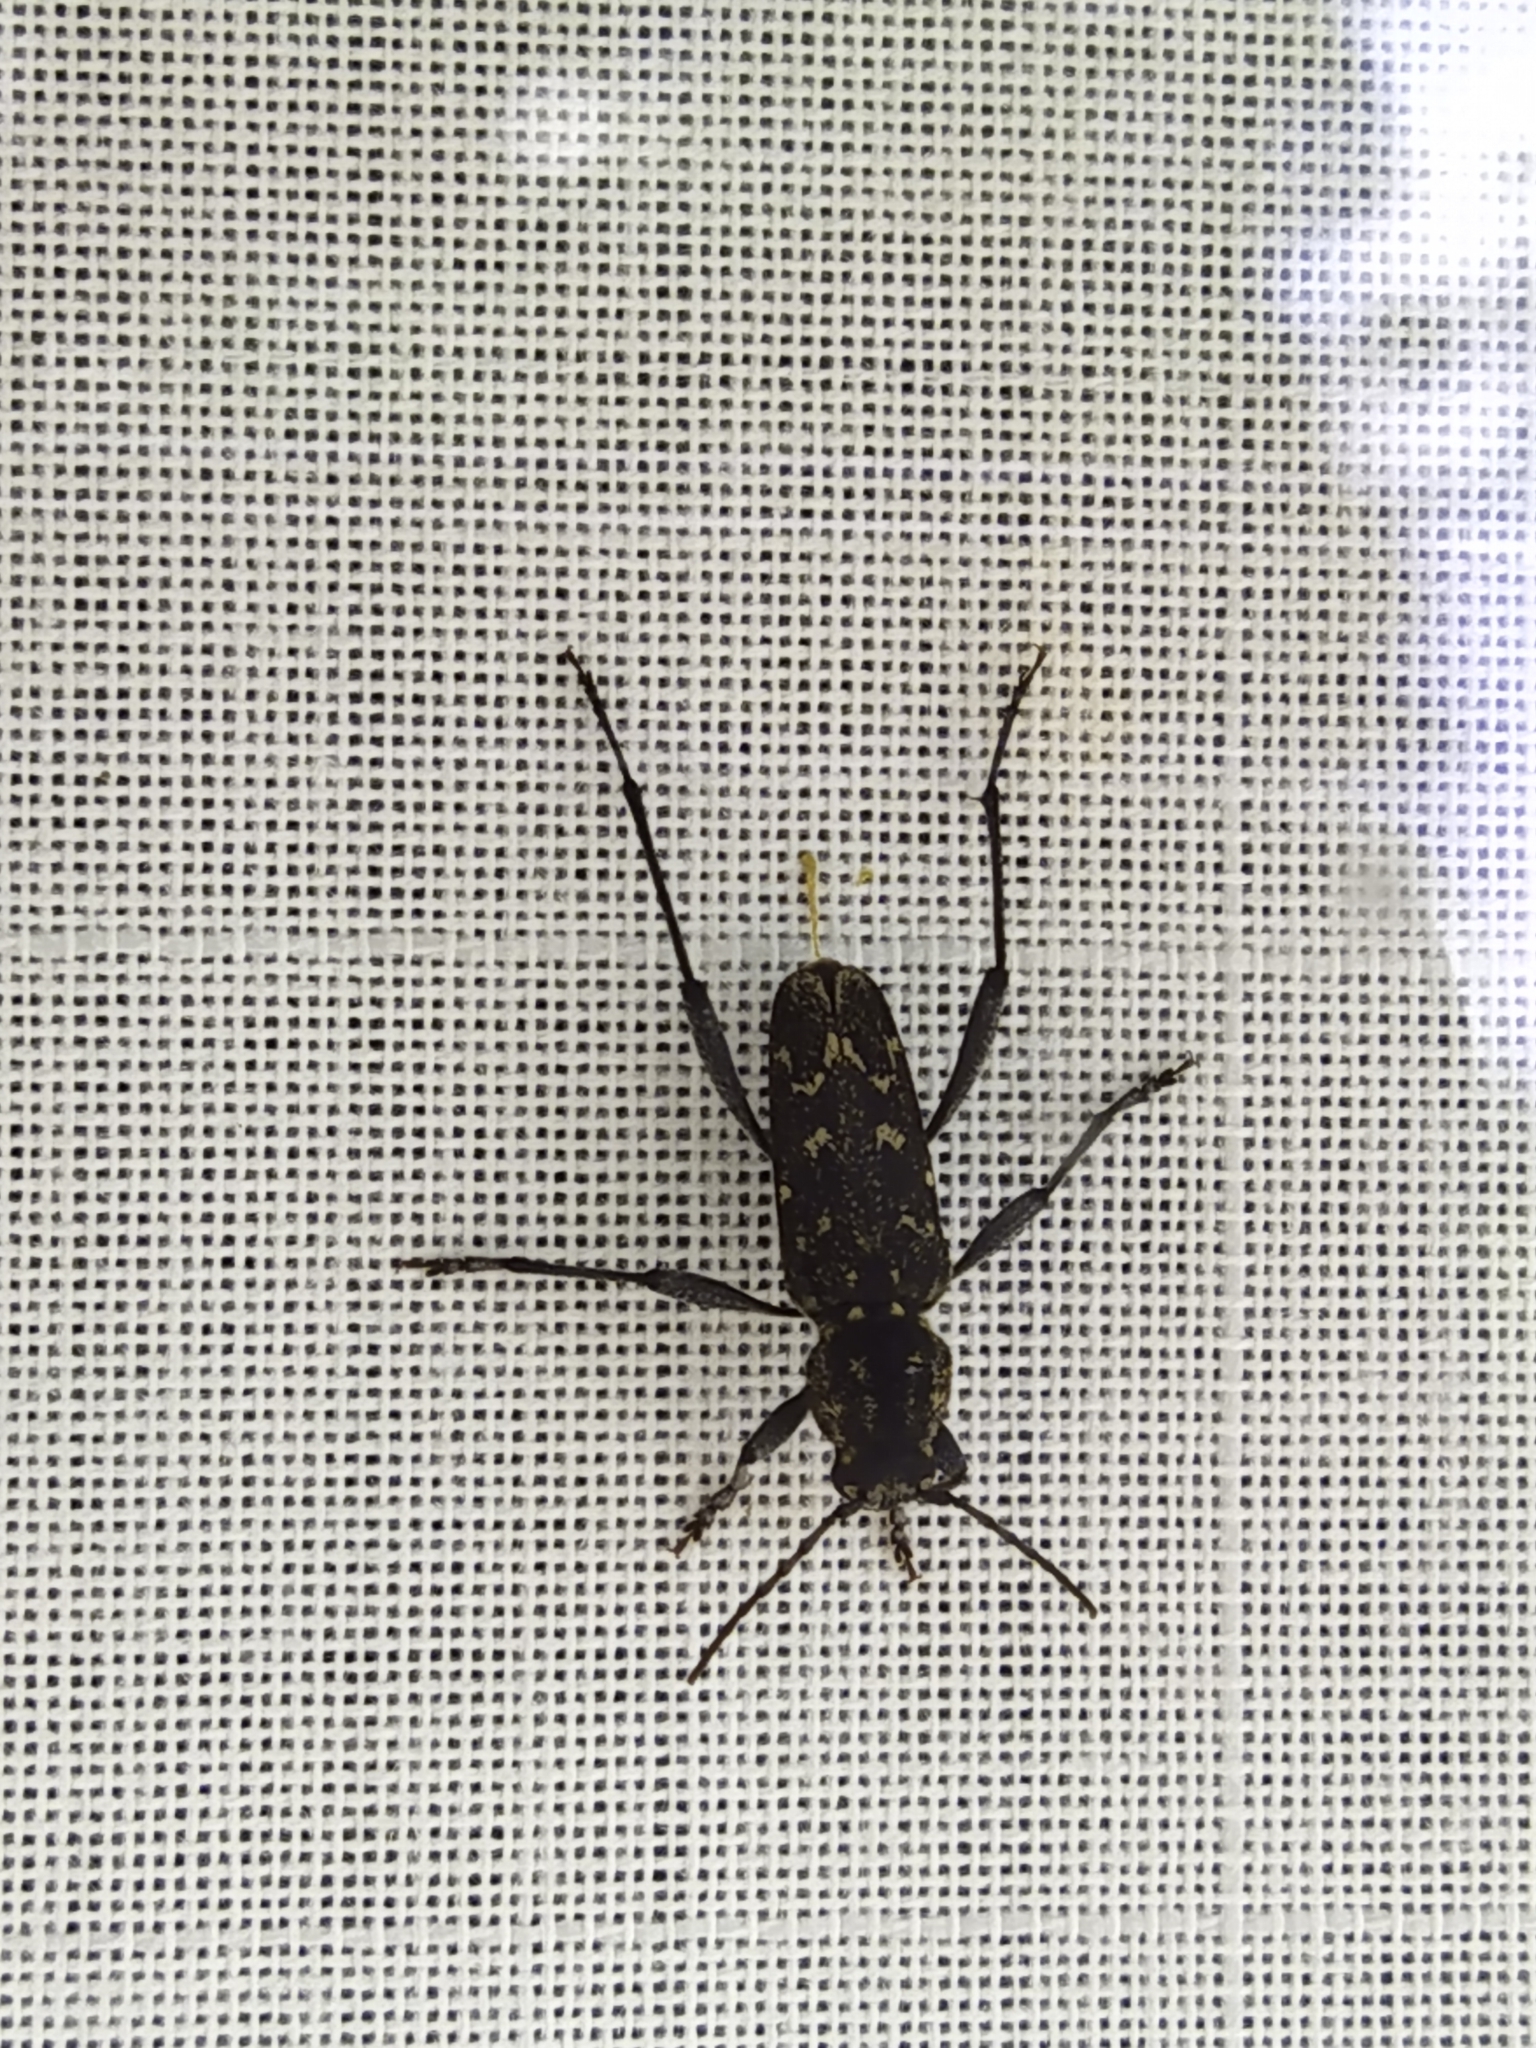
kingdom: Animalia
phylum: Arthropoda
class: Insecta
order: Coleoptera
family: Cerambycidae
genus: Xylotrechus
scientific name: Xylotrechus rusticus
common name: Grey tiger long-horned beetle
